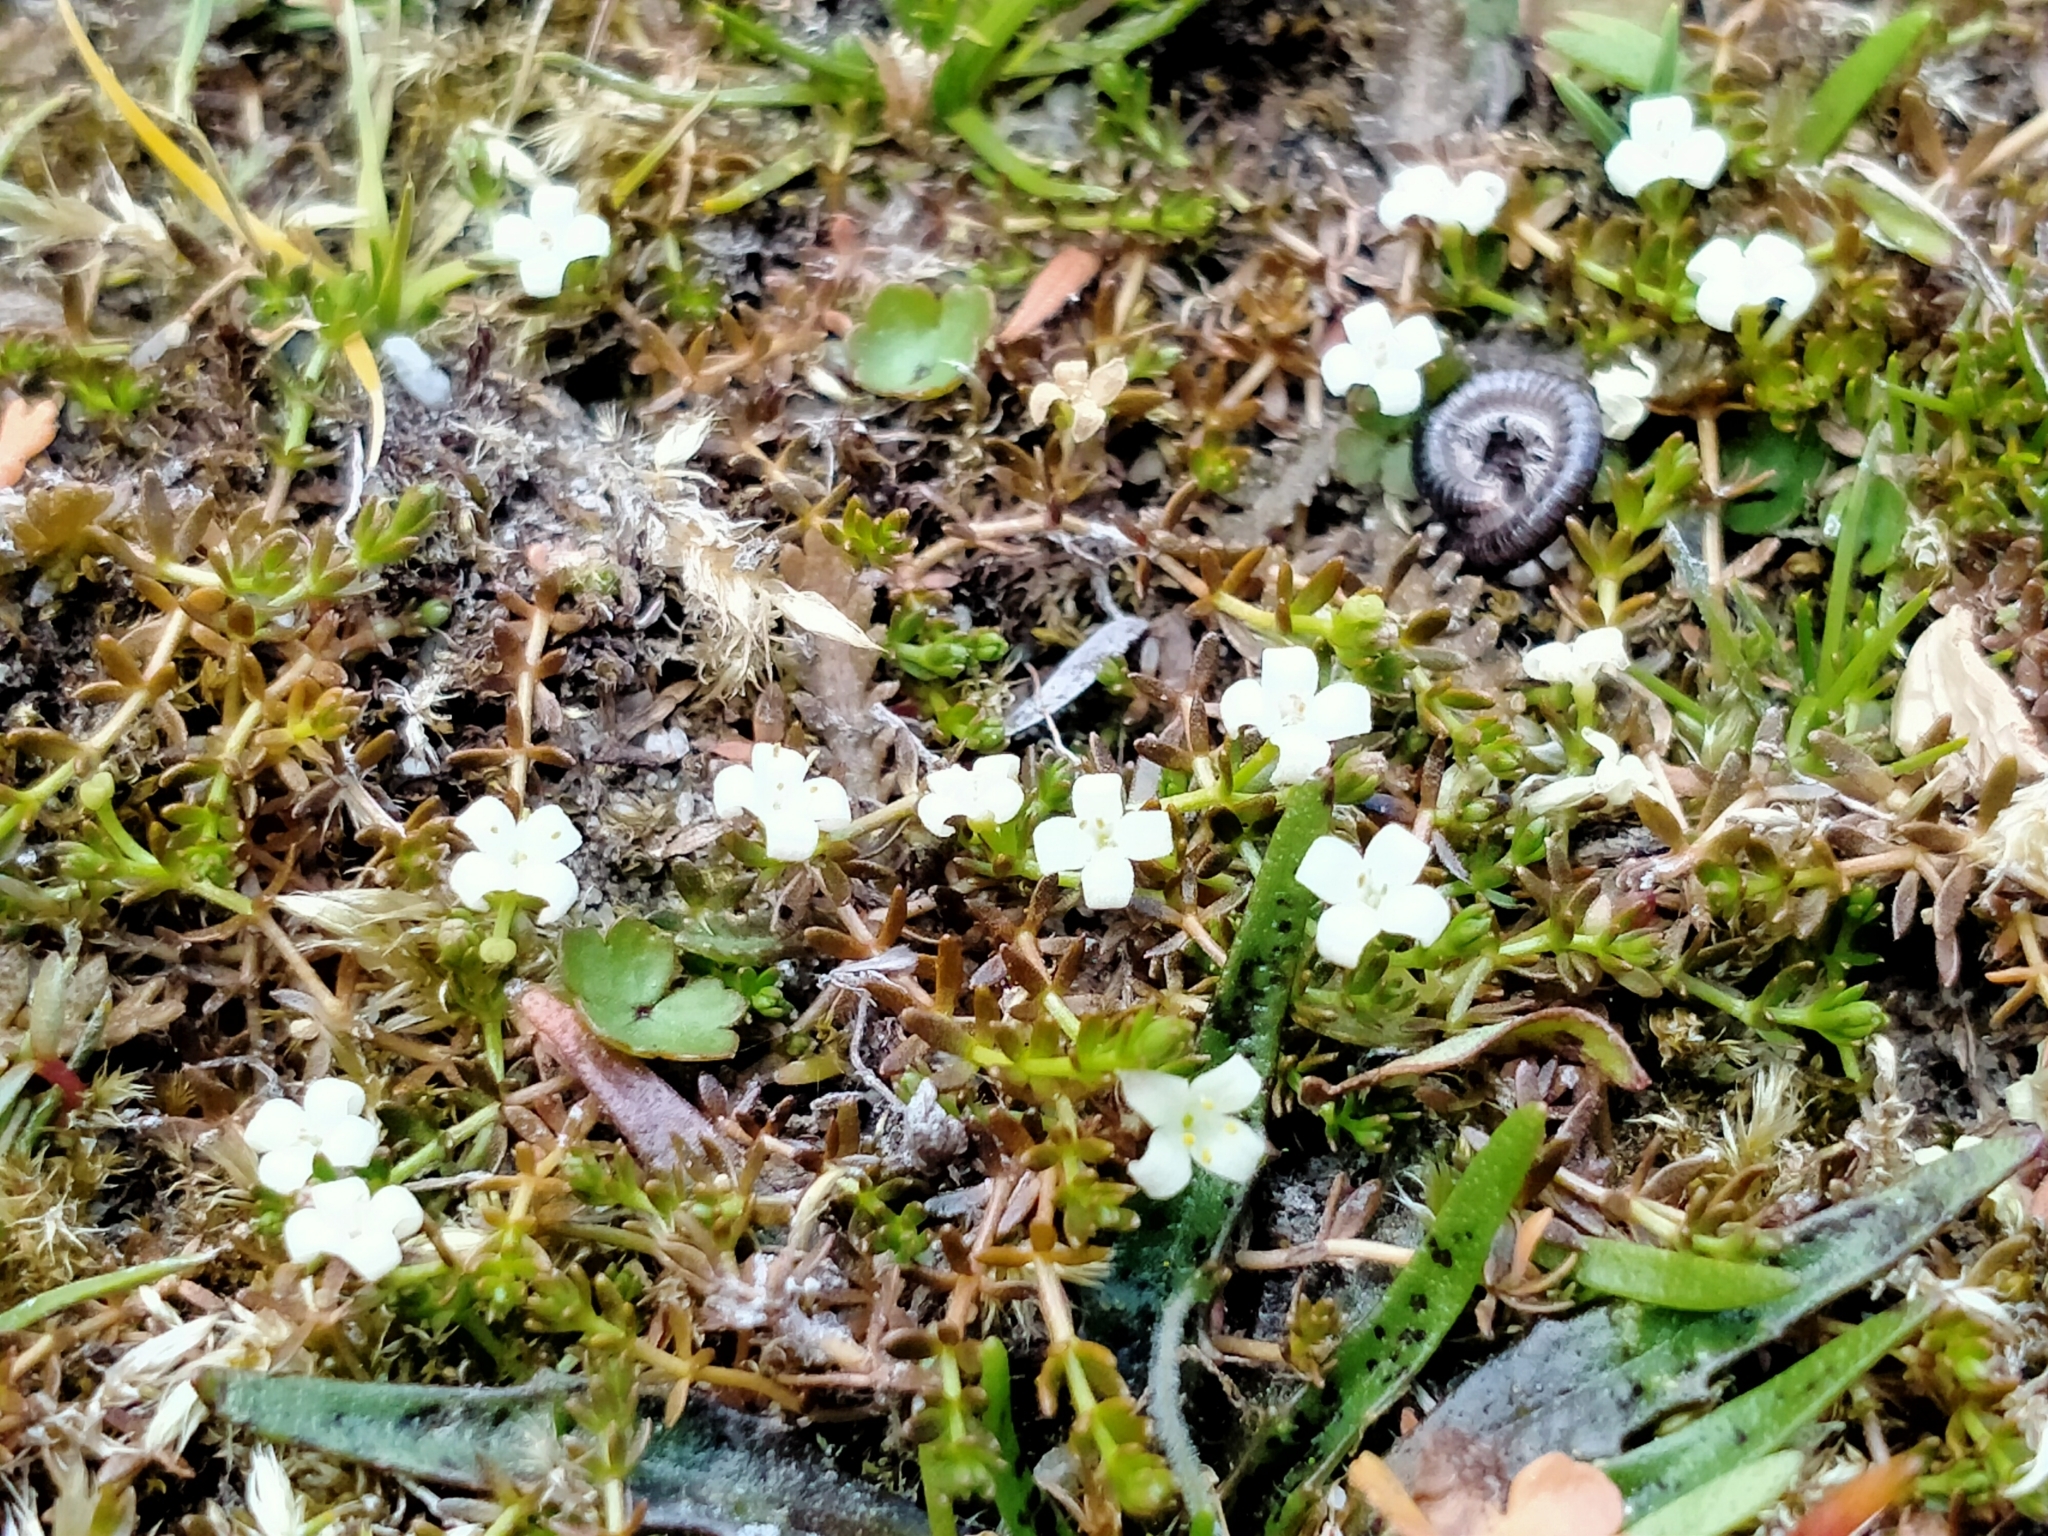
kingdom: Plantae
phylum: Tracheophyta
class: Magnoliopsida
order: Gentianales
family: Rubiaceae
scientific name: Rubiaceae
